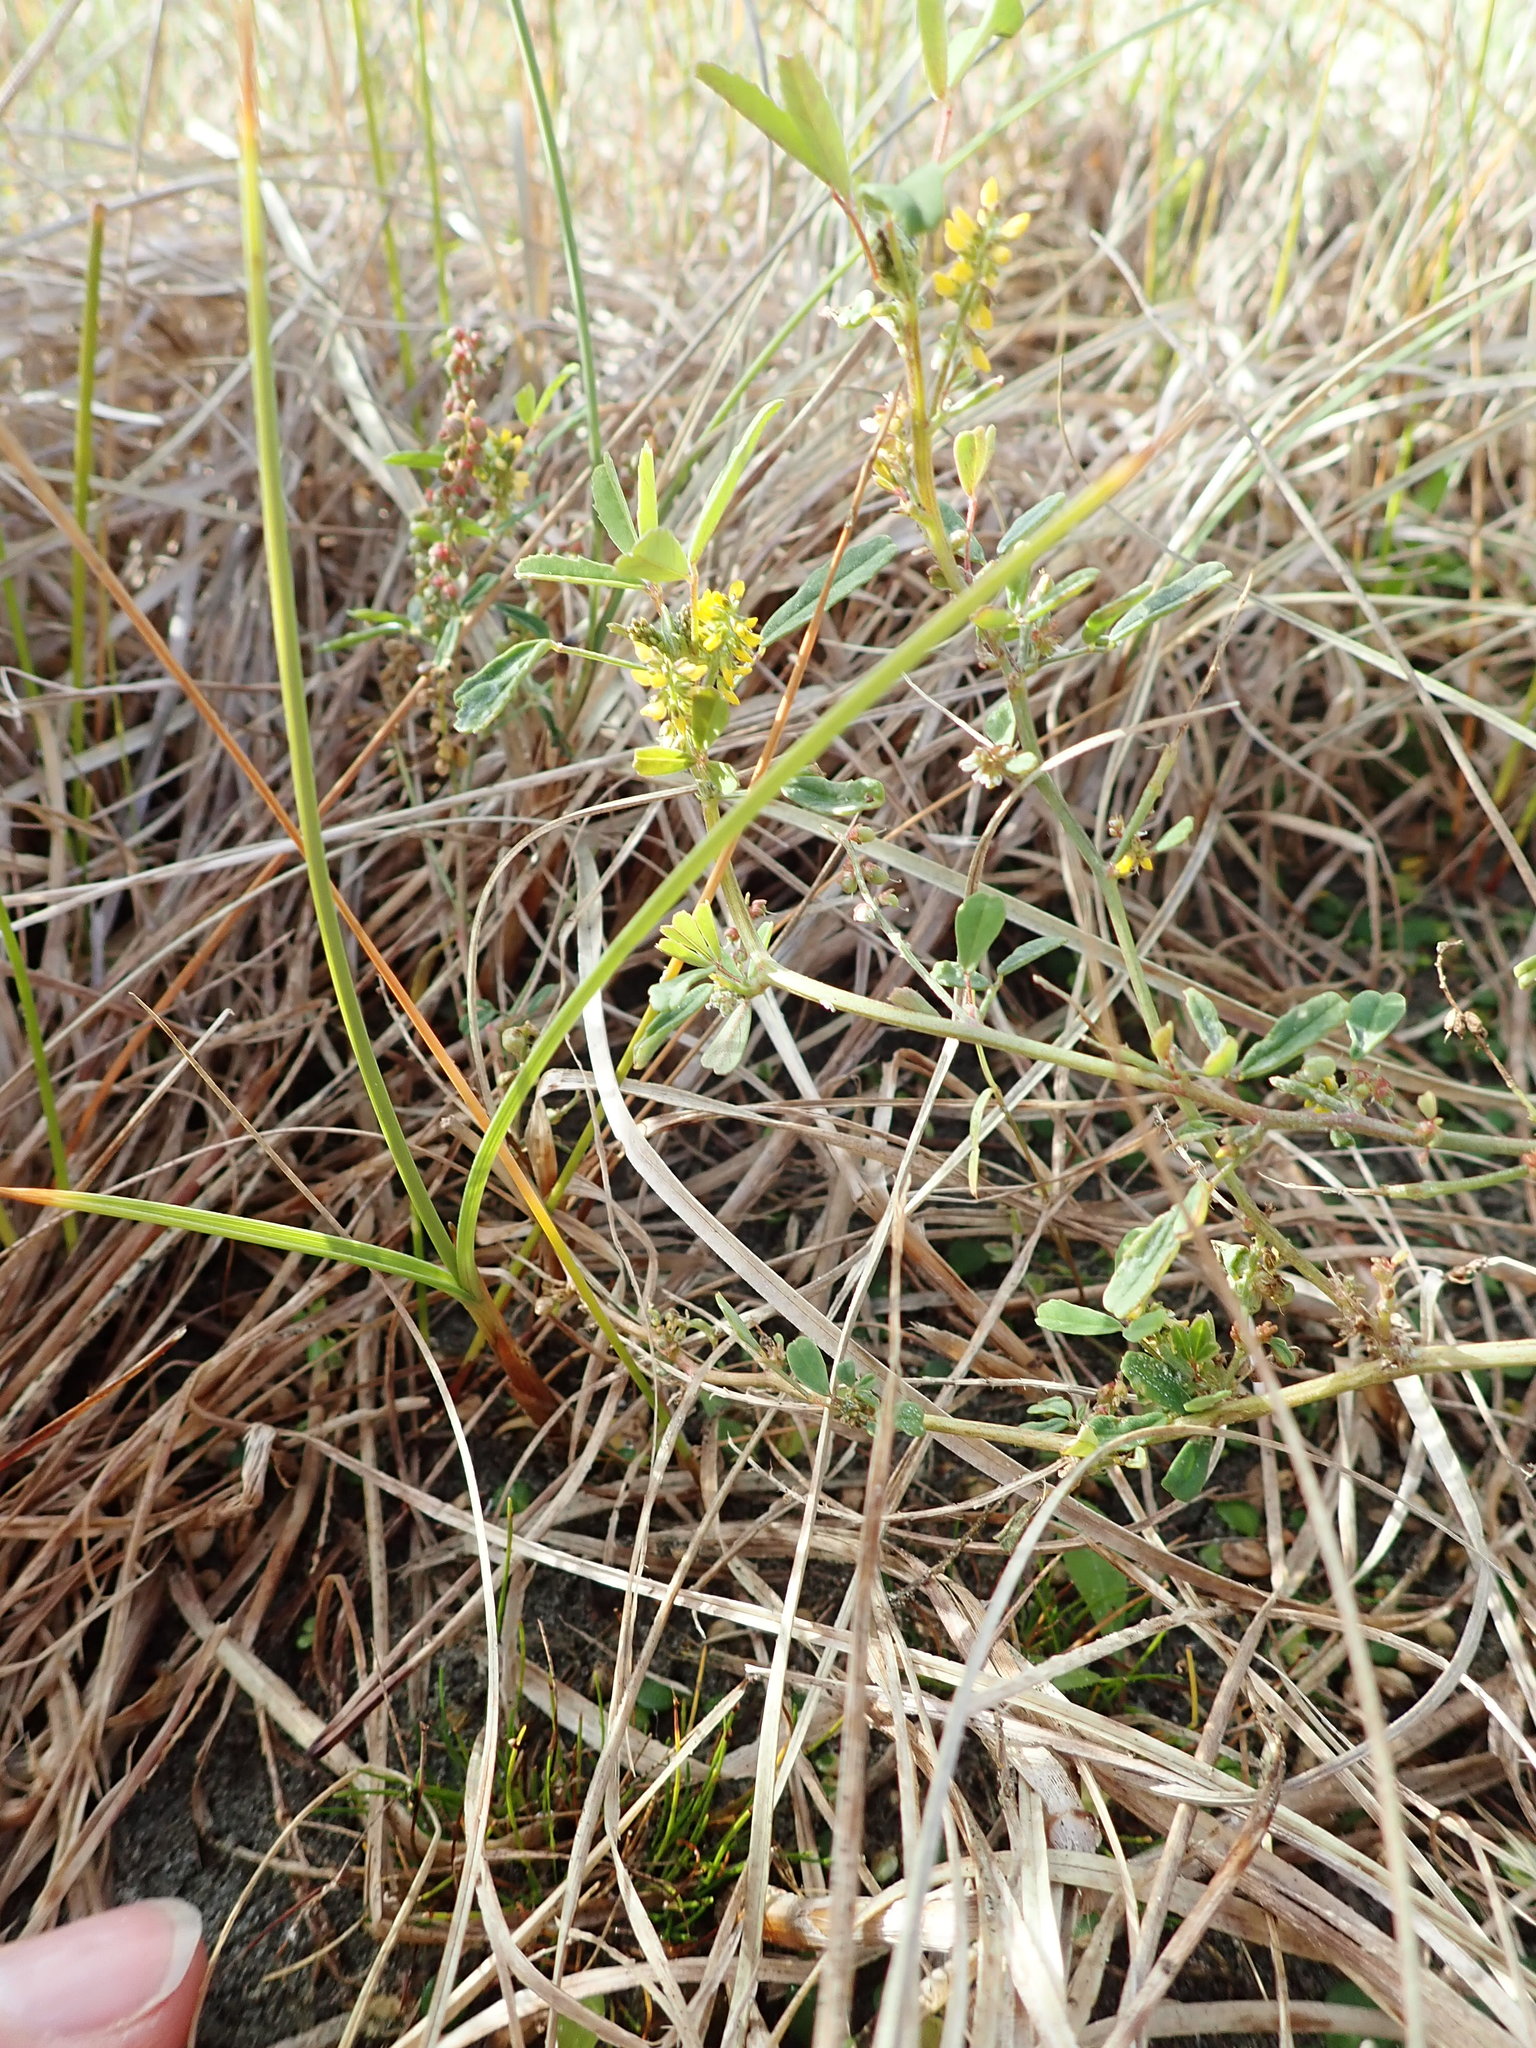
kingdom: Plantae
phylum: Tracheophyta
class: Magnoliopsida
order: Fabales
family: Fabaceae
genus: Melilotus
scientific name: Melilotus indicus
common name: Small melilot
